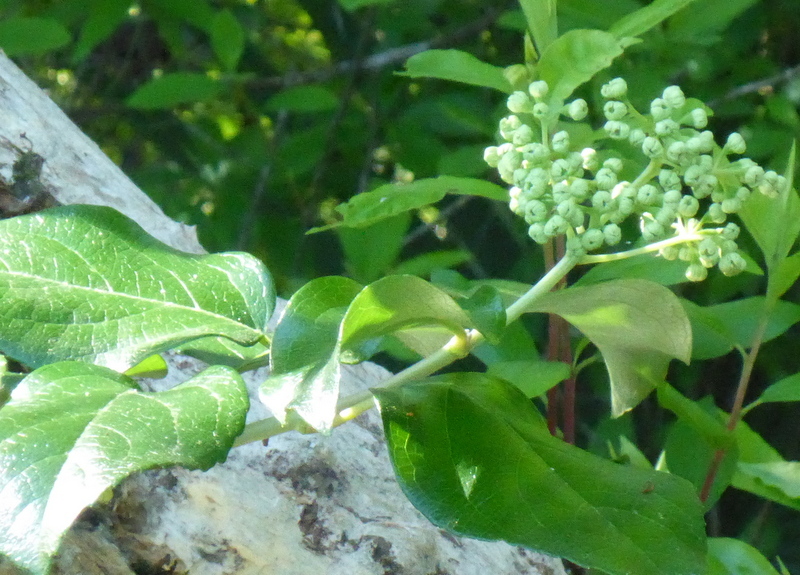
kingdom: Plantae
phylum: Tracheophyta
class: Magnoliopsida
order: Cornales
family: Hydrangeaceae
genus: Hydrangea
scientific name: Hydrangea barbara
